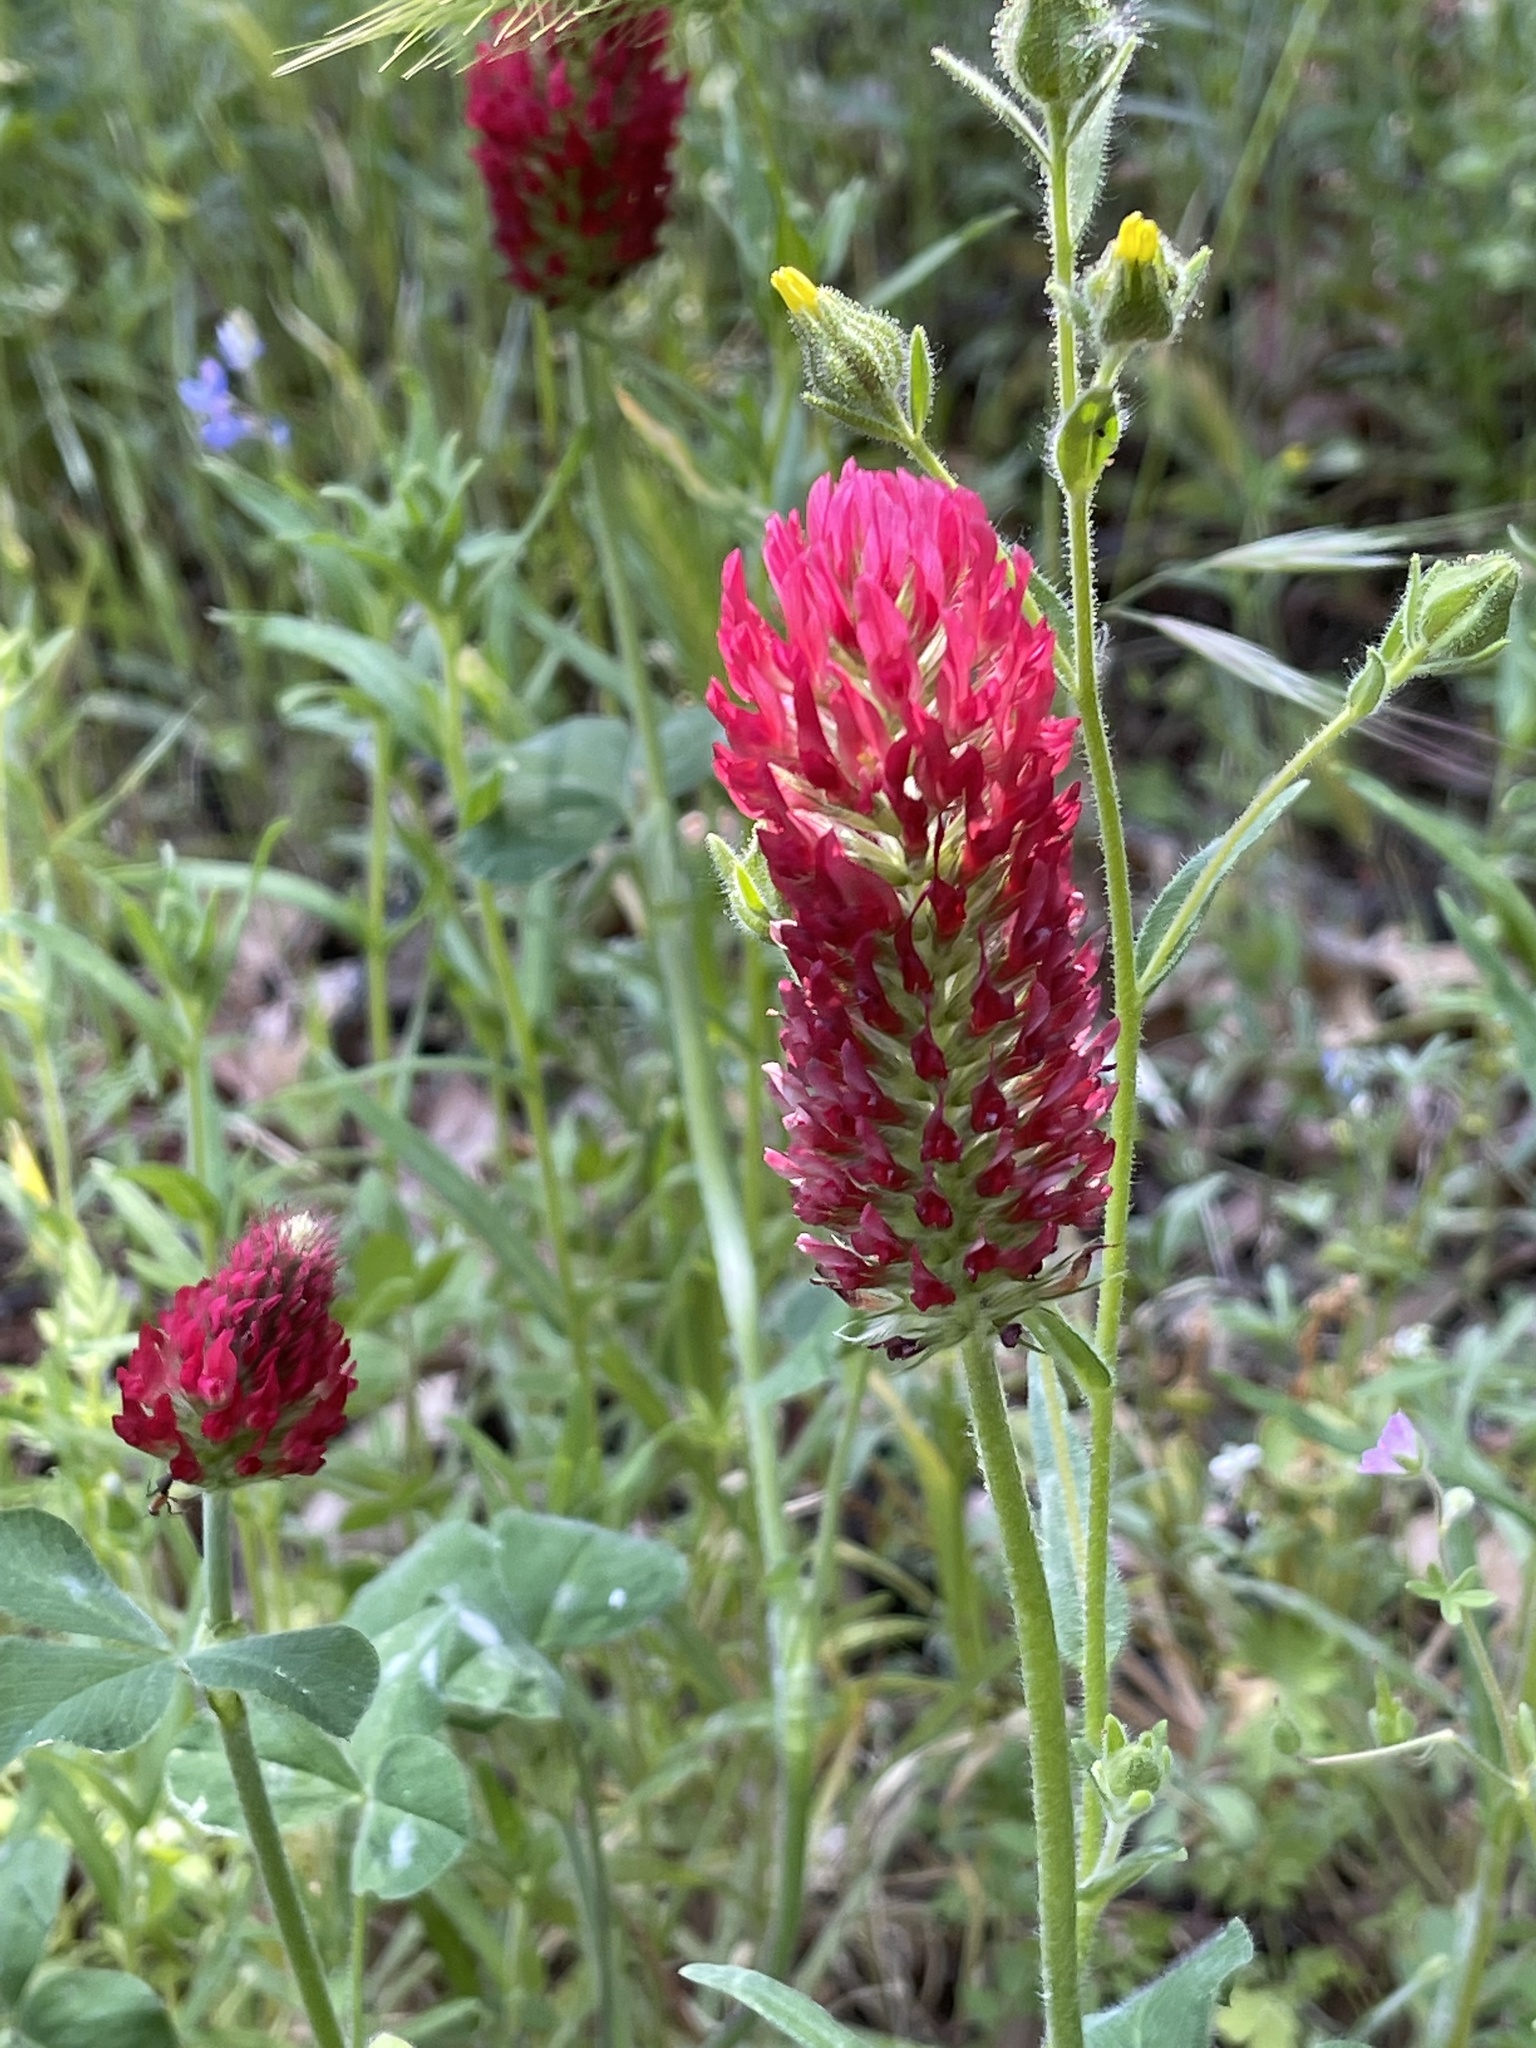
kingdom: Plantae
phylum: Tracheophyta
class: Magnoliopsida
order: Fabales
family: Fabaceae
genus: Trifolium
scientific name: Trifolium incarnatum
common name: Crimson clover
